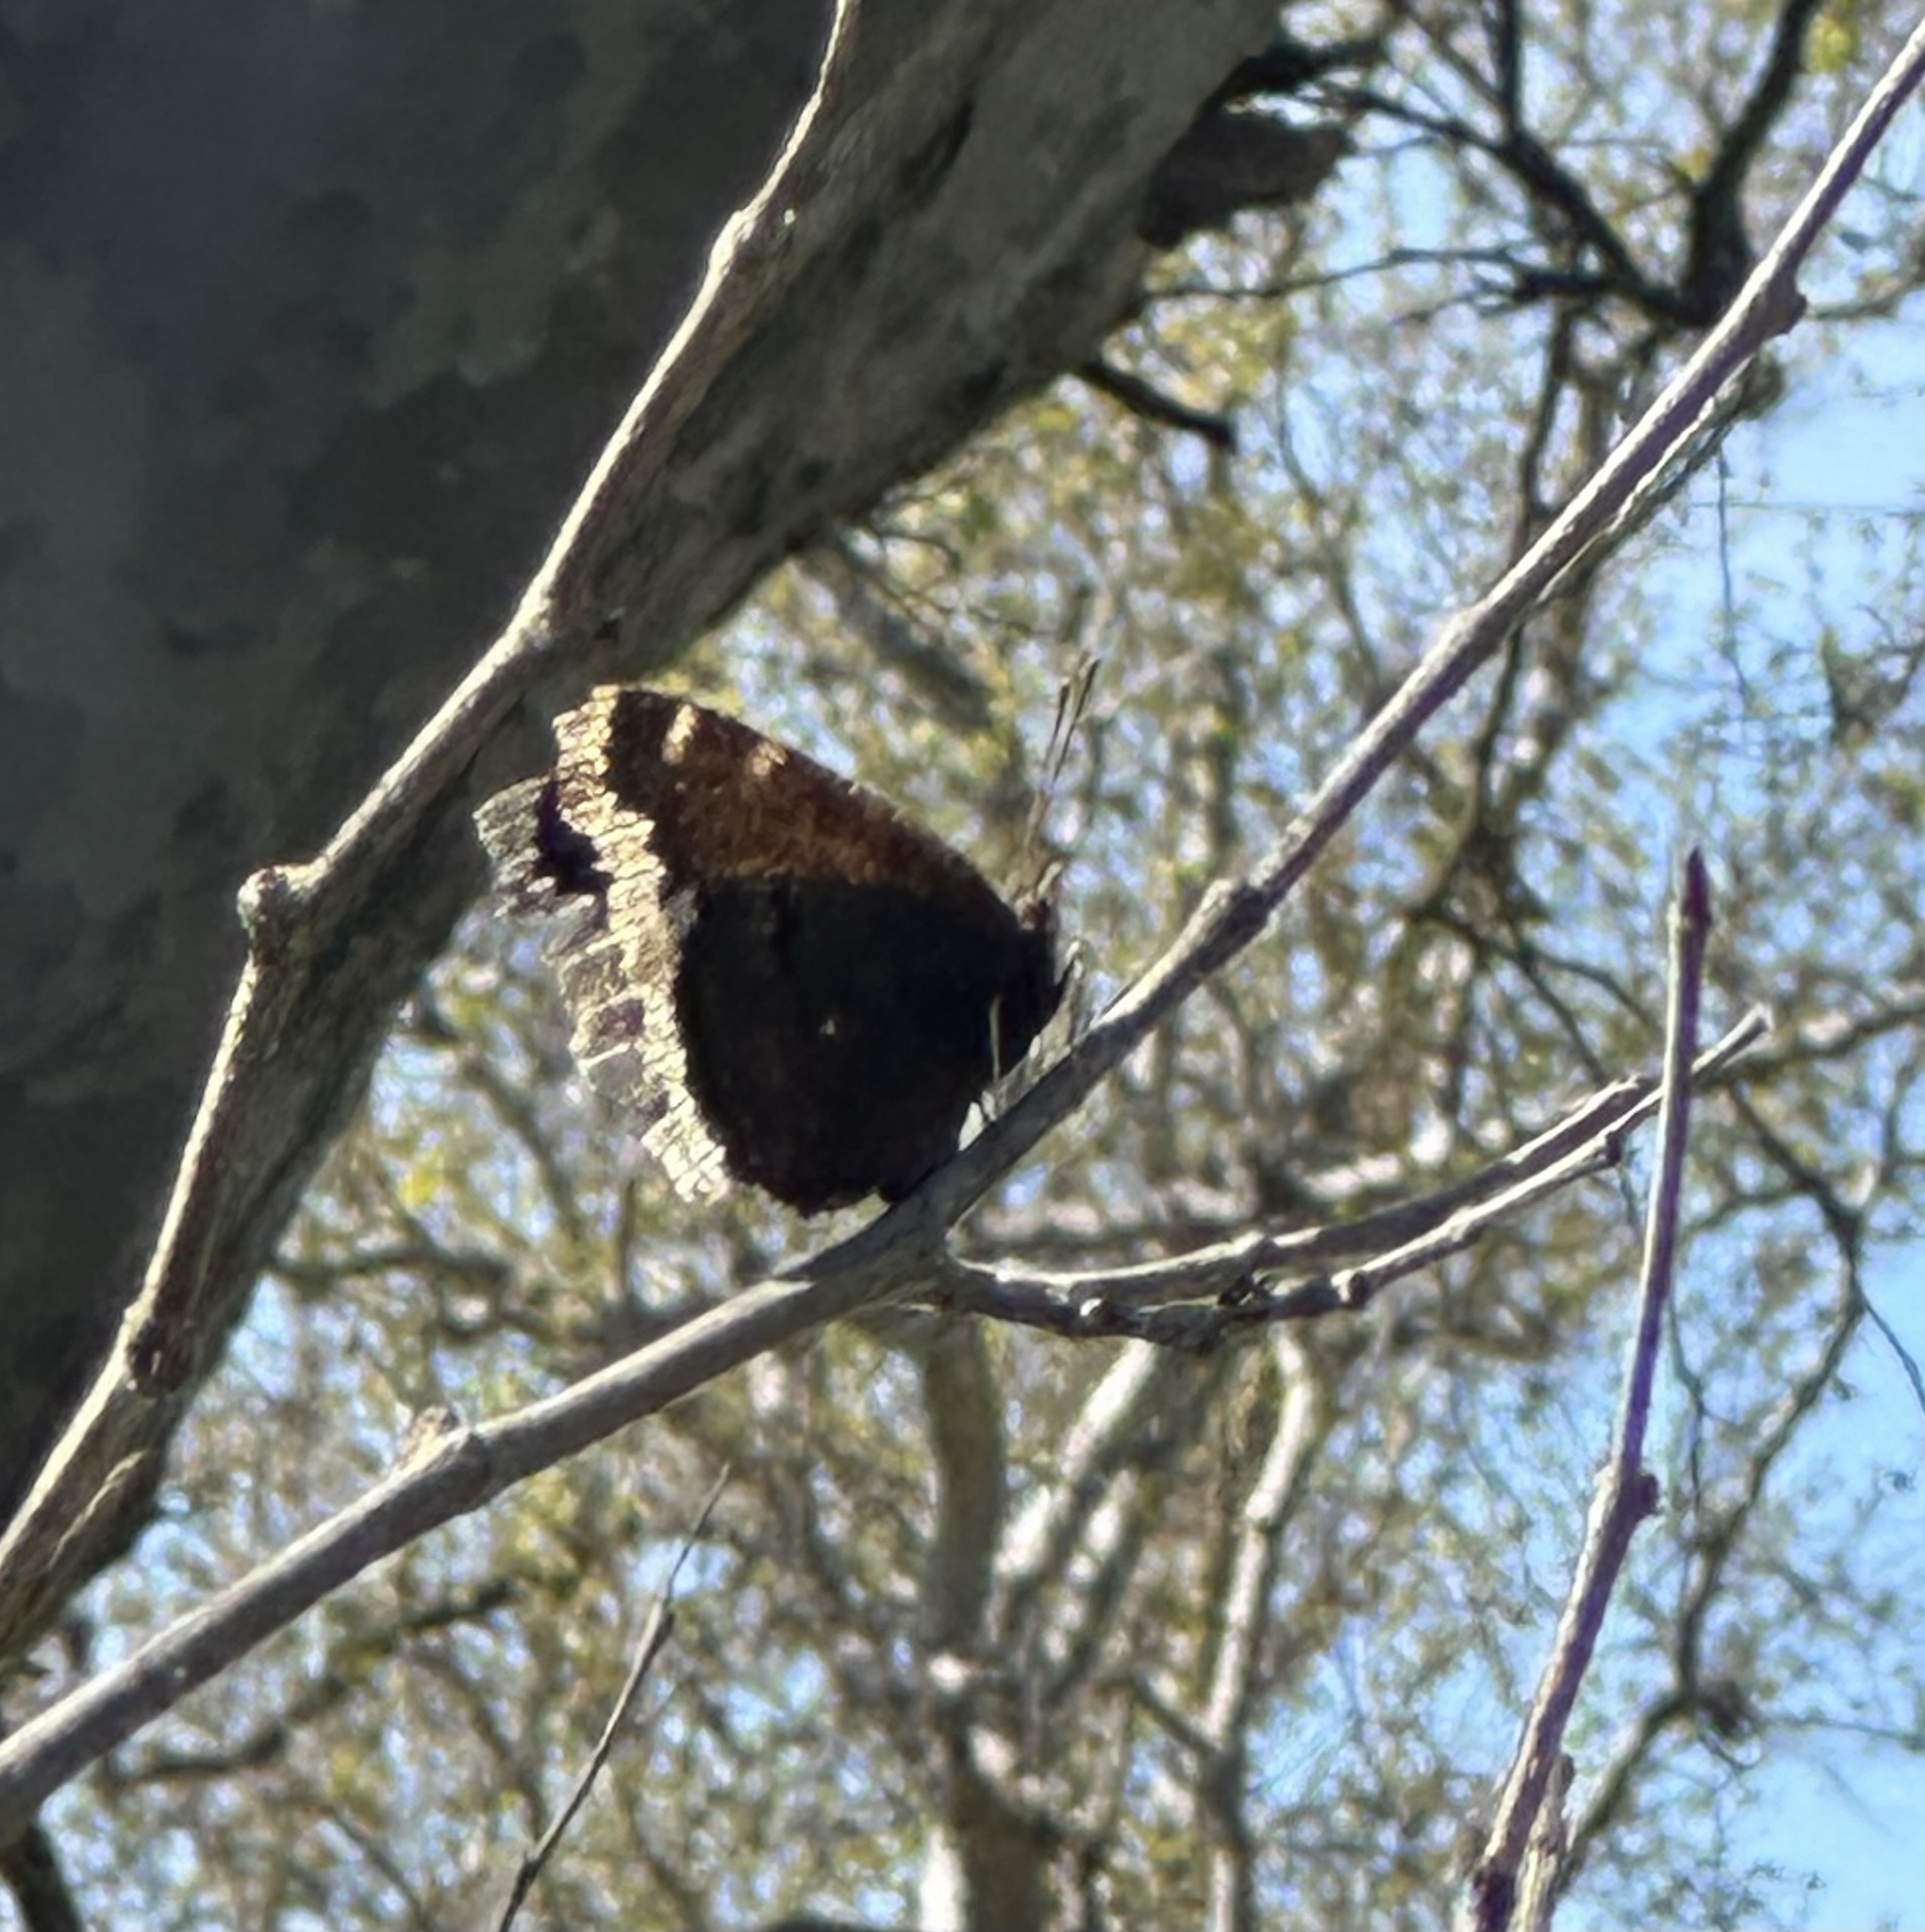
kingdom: Animalia
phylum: Arthropoda
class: Insecta
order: Lepidoptera
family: Nymphalidae
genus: Nymphalis
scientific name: Nymphalis antiopa
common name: Camberwell beauty
